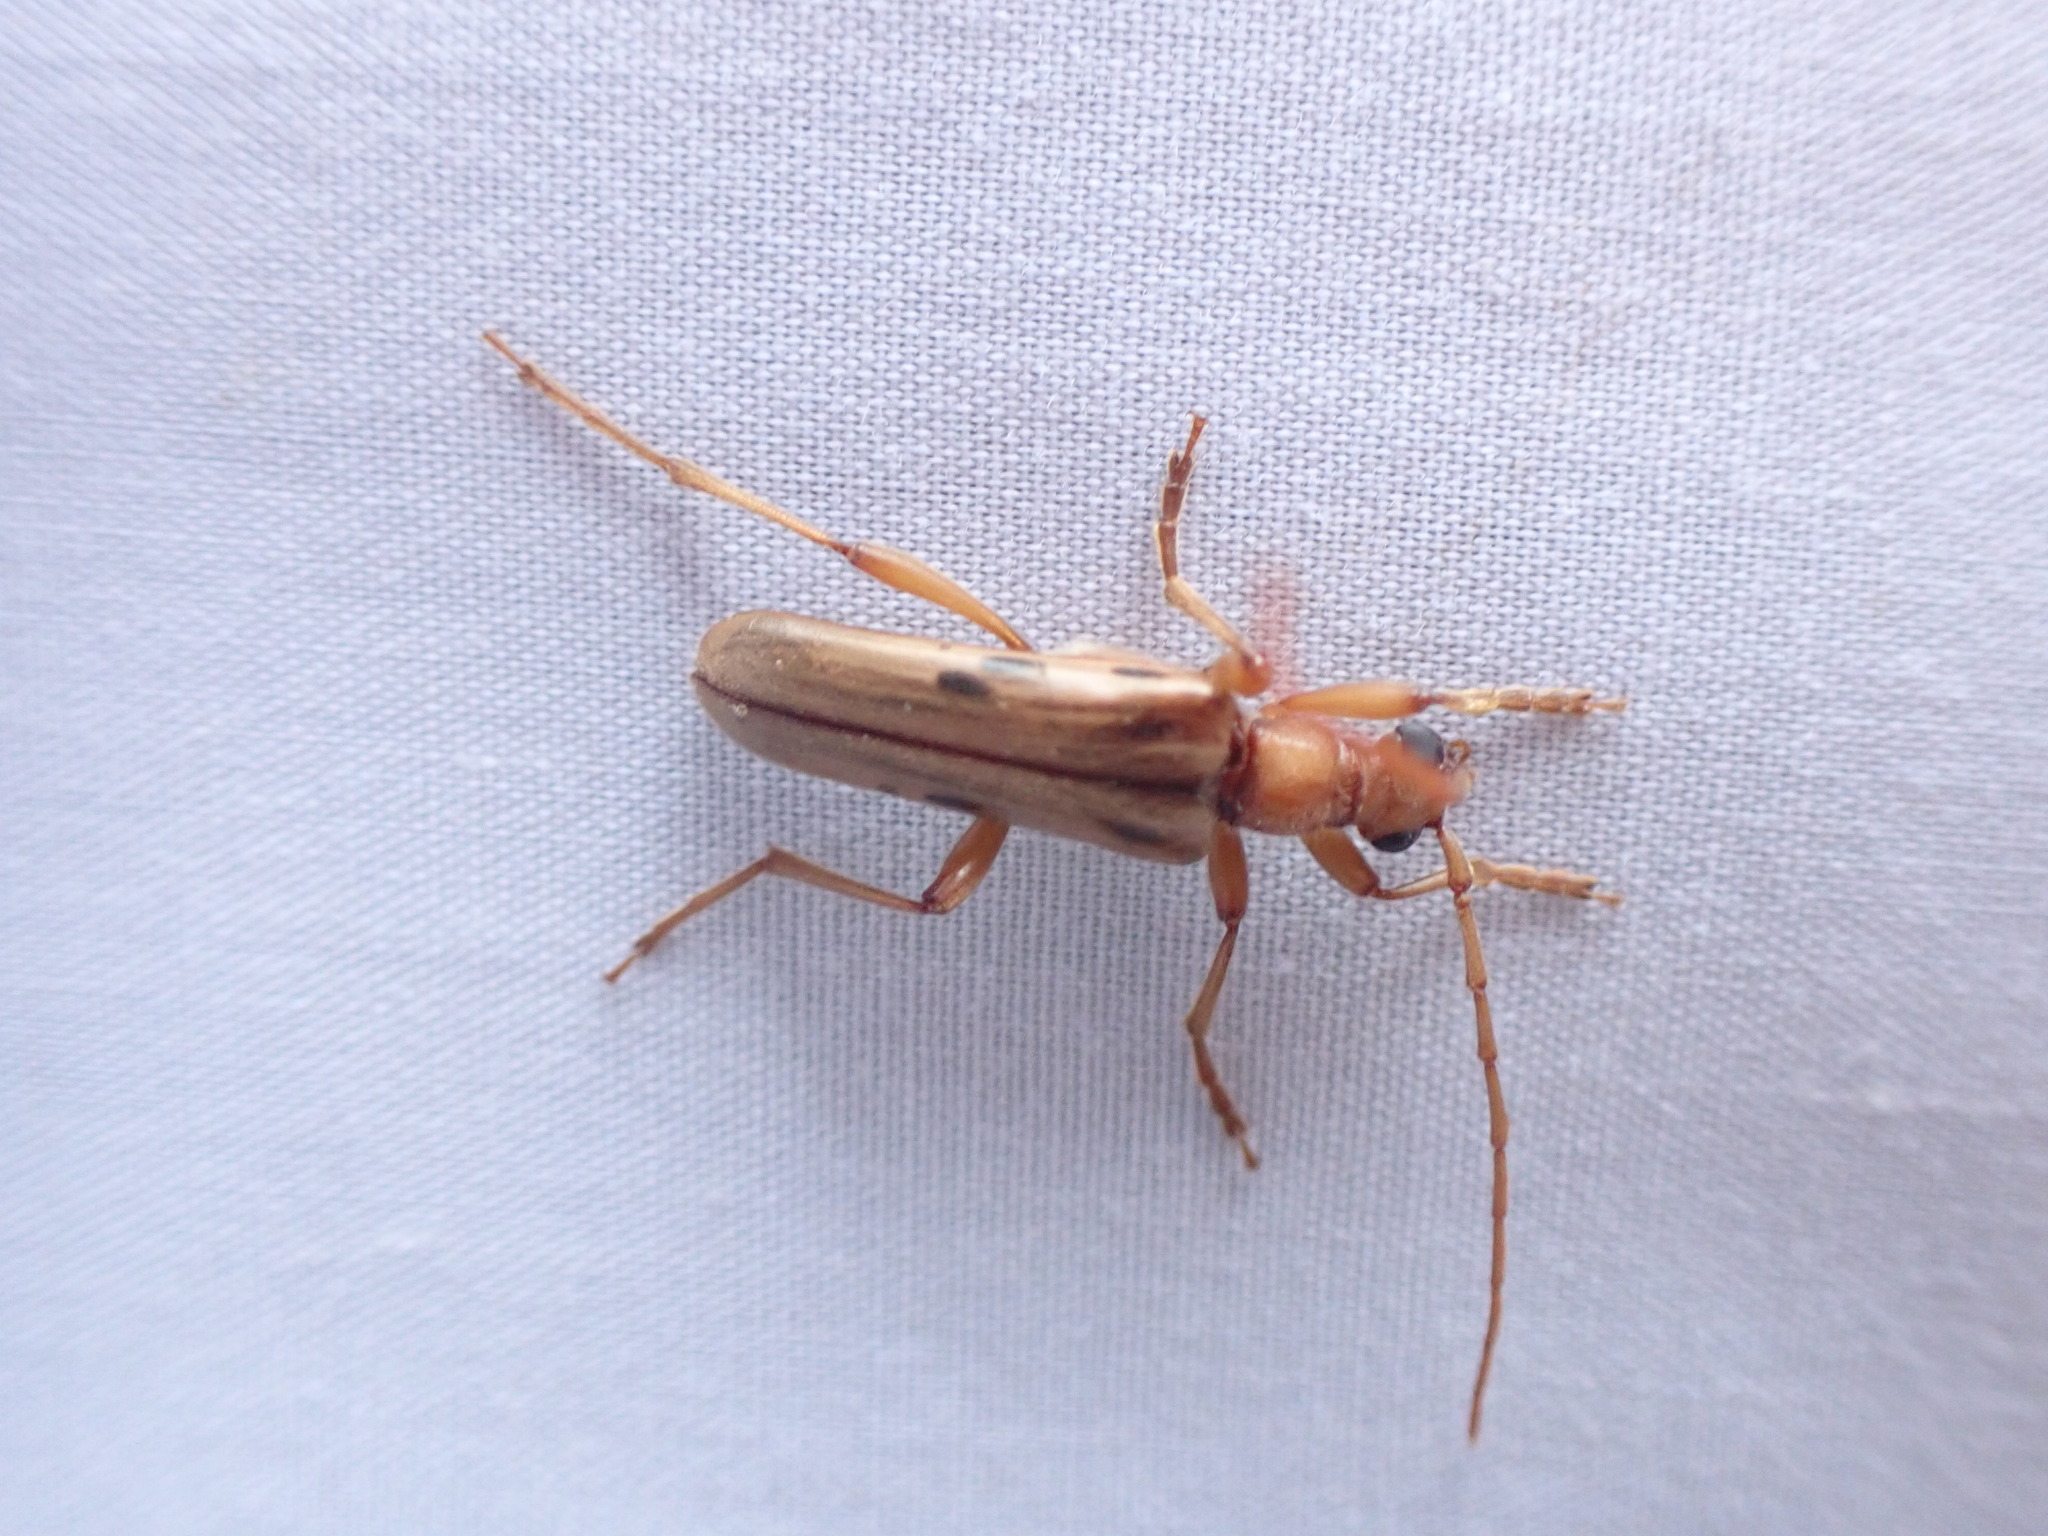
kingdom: Animalia
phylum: Arthropoda
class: Insecta
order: Coleoptera
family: Cerambycidae
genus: Ortholeptura
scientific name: Ortholeptura valida
